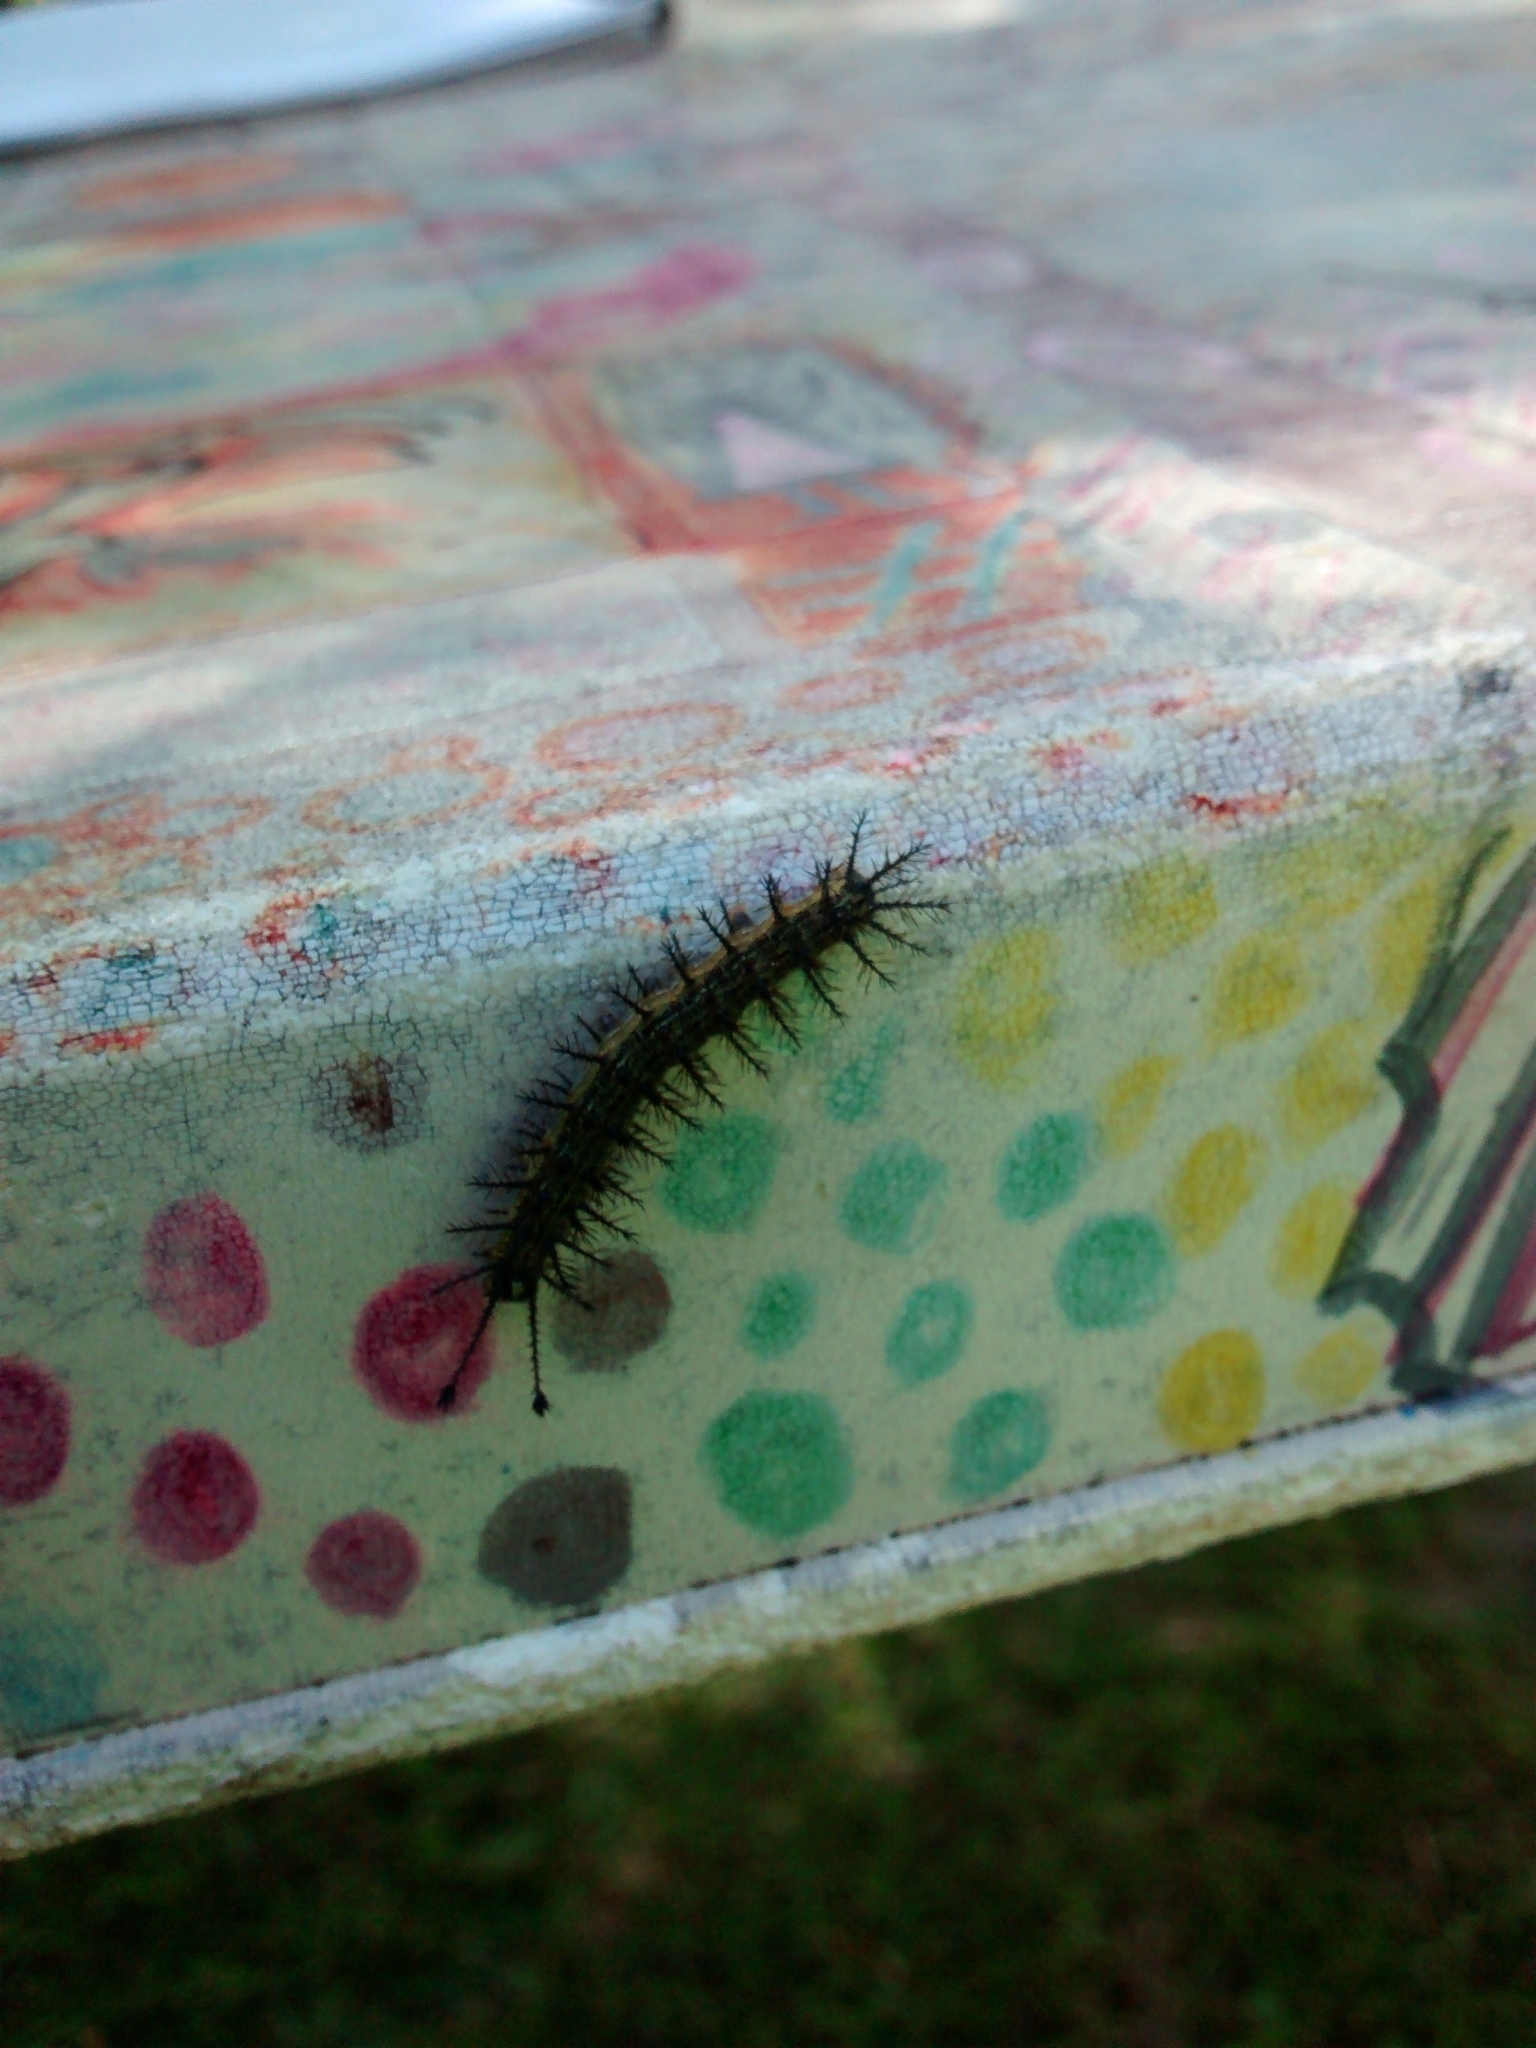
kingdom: Animalia
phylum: Arthropoda
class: Insecta
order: Lepidoptera
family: Saturniidae
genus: Hylesia
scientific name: Hylesia nigricans
